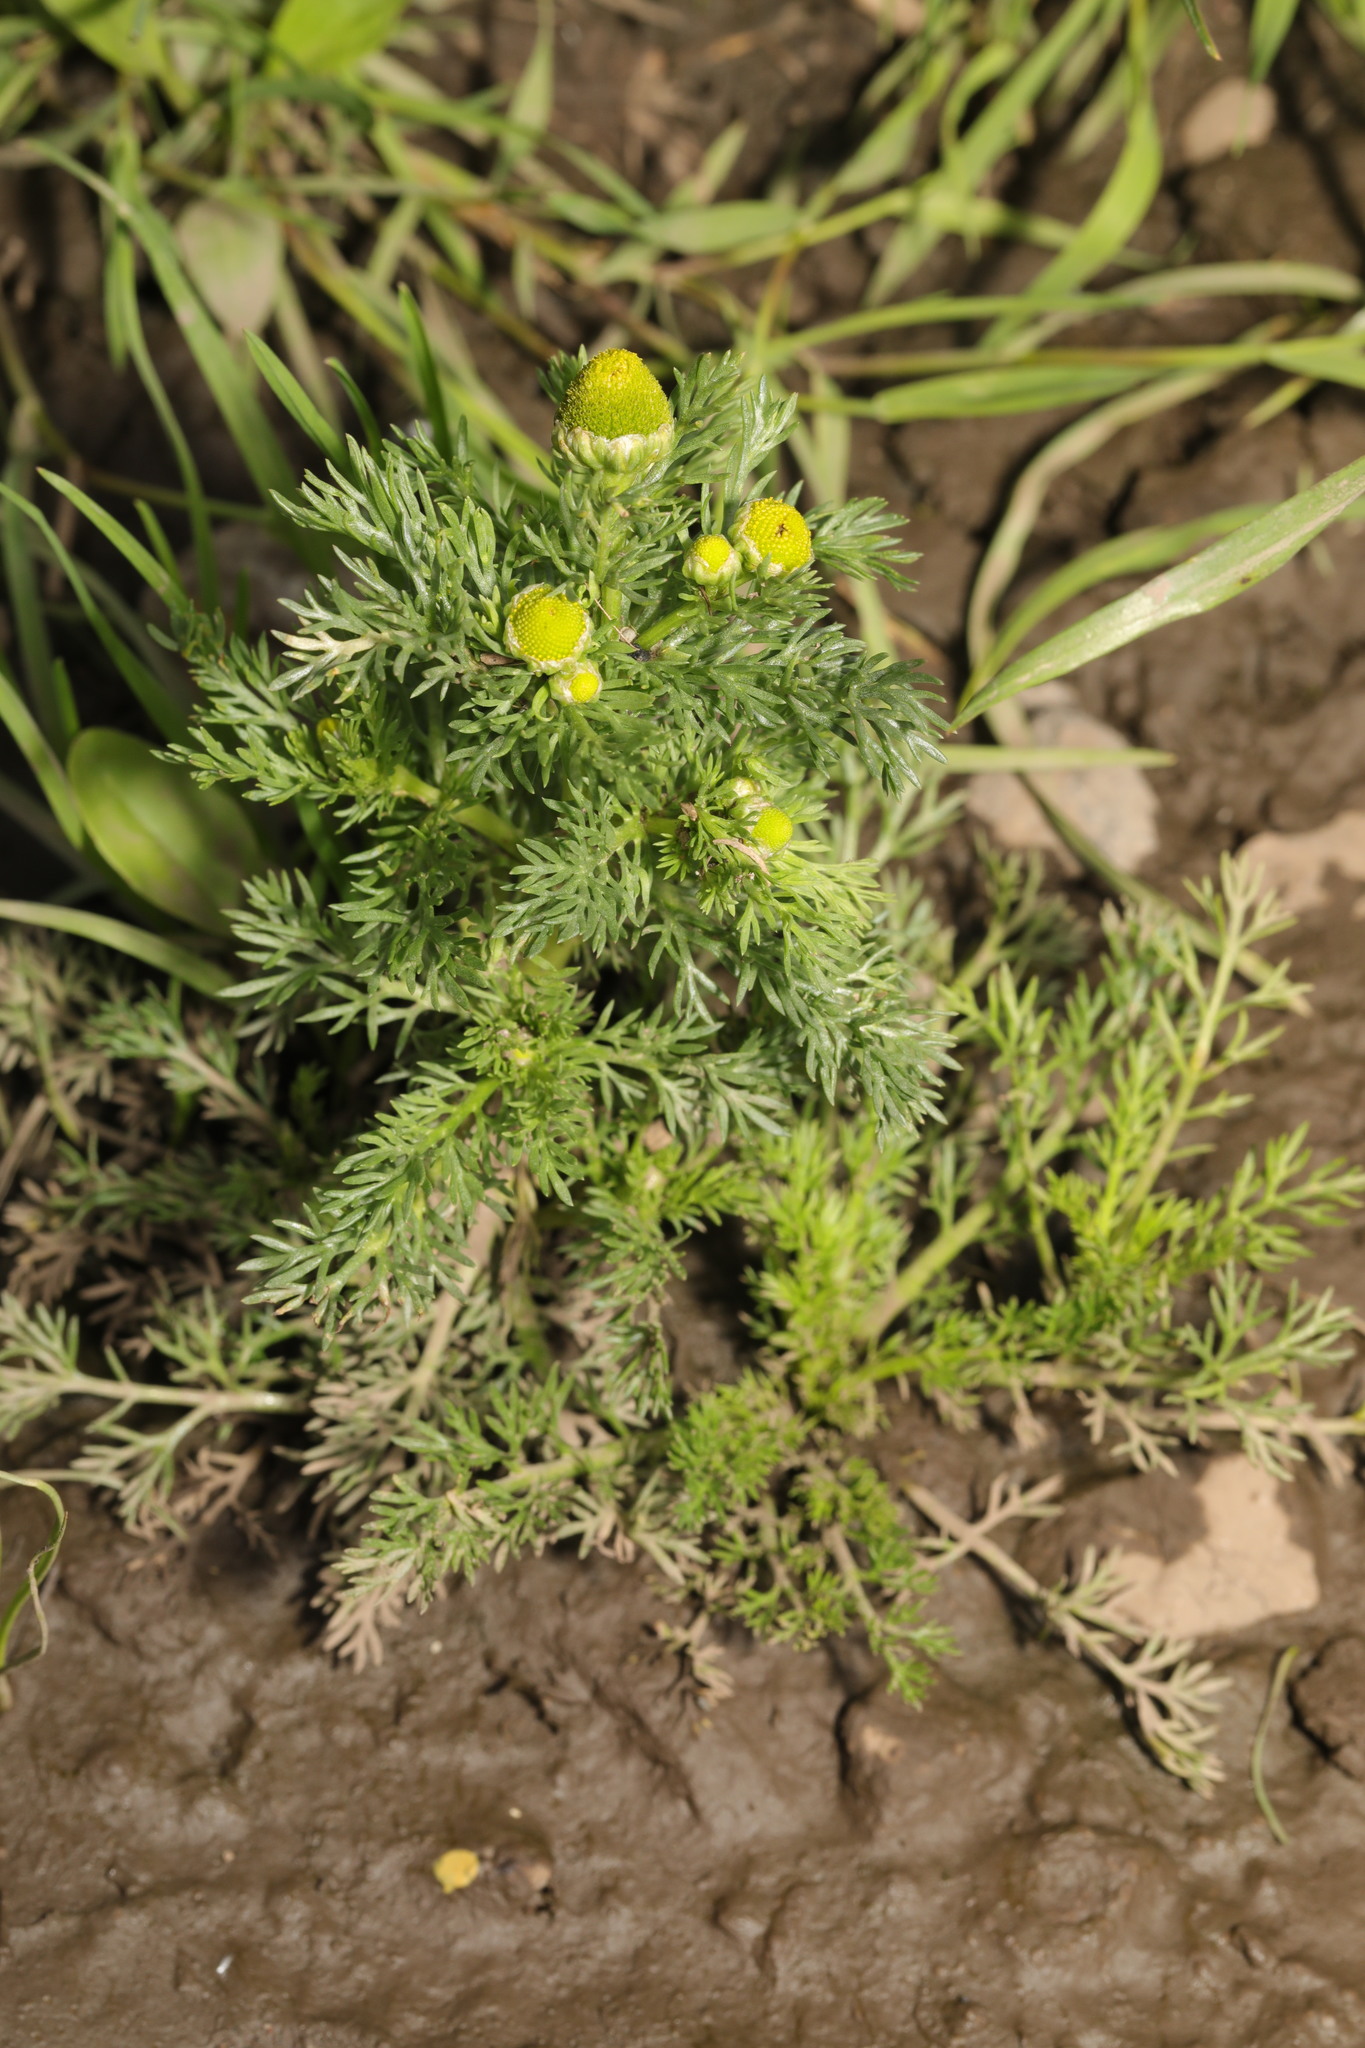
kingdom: Plantae
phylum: Tracheophyta
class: Magnoliopsida
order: Asterales
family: Asteraceae
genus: Matricaria
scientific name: Matricaria discoidea
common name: Disc mayweed
